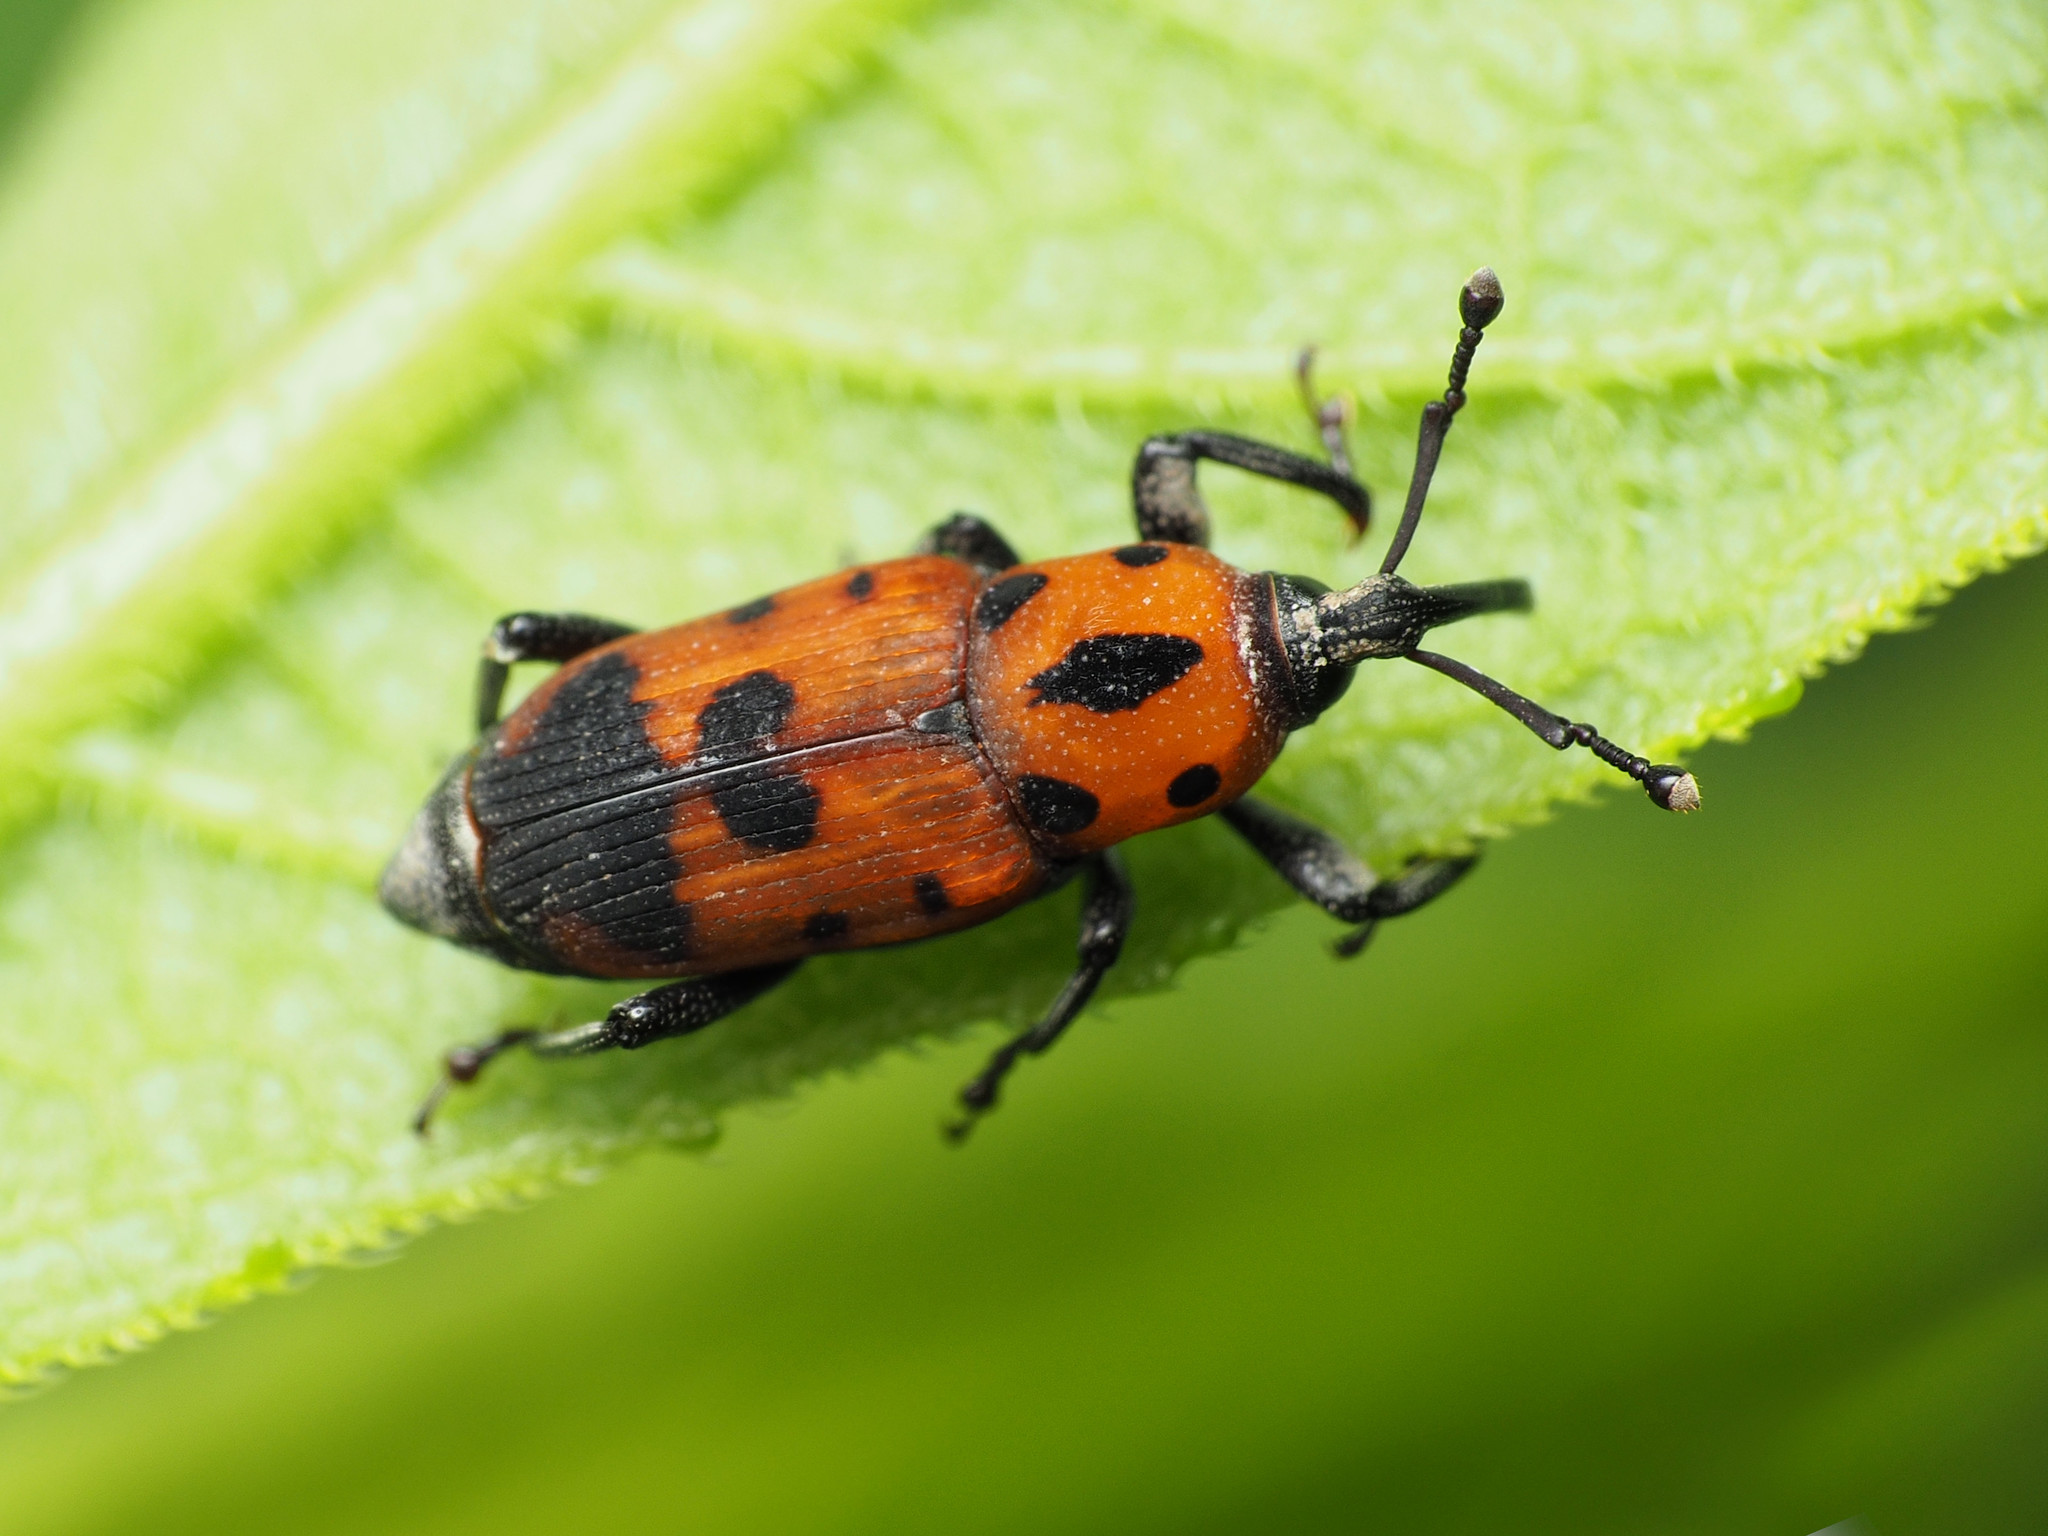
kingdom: Animalia
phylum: Arthropoda
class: Insecta
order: Coleoptera
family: Dryophthoridae
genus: Rhodobaenus
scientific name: Rhodobaenus quinquepunctatus
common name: Cocklebur weevil
